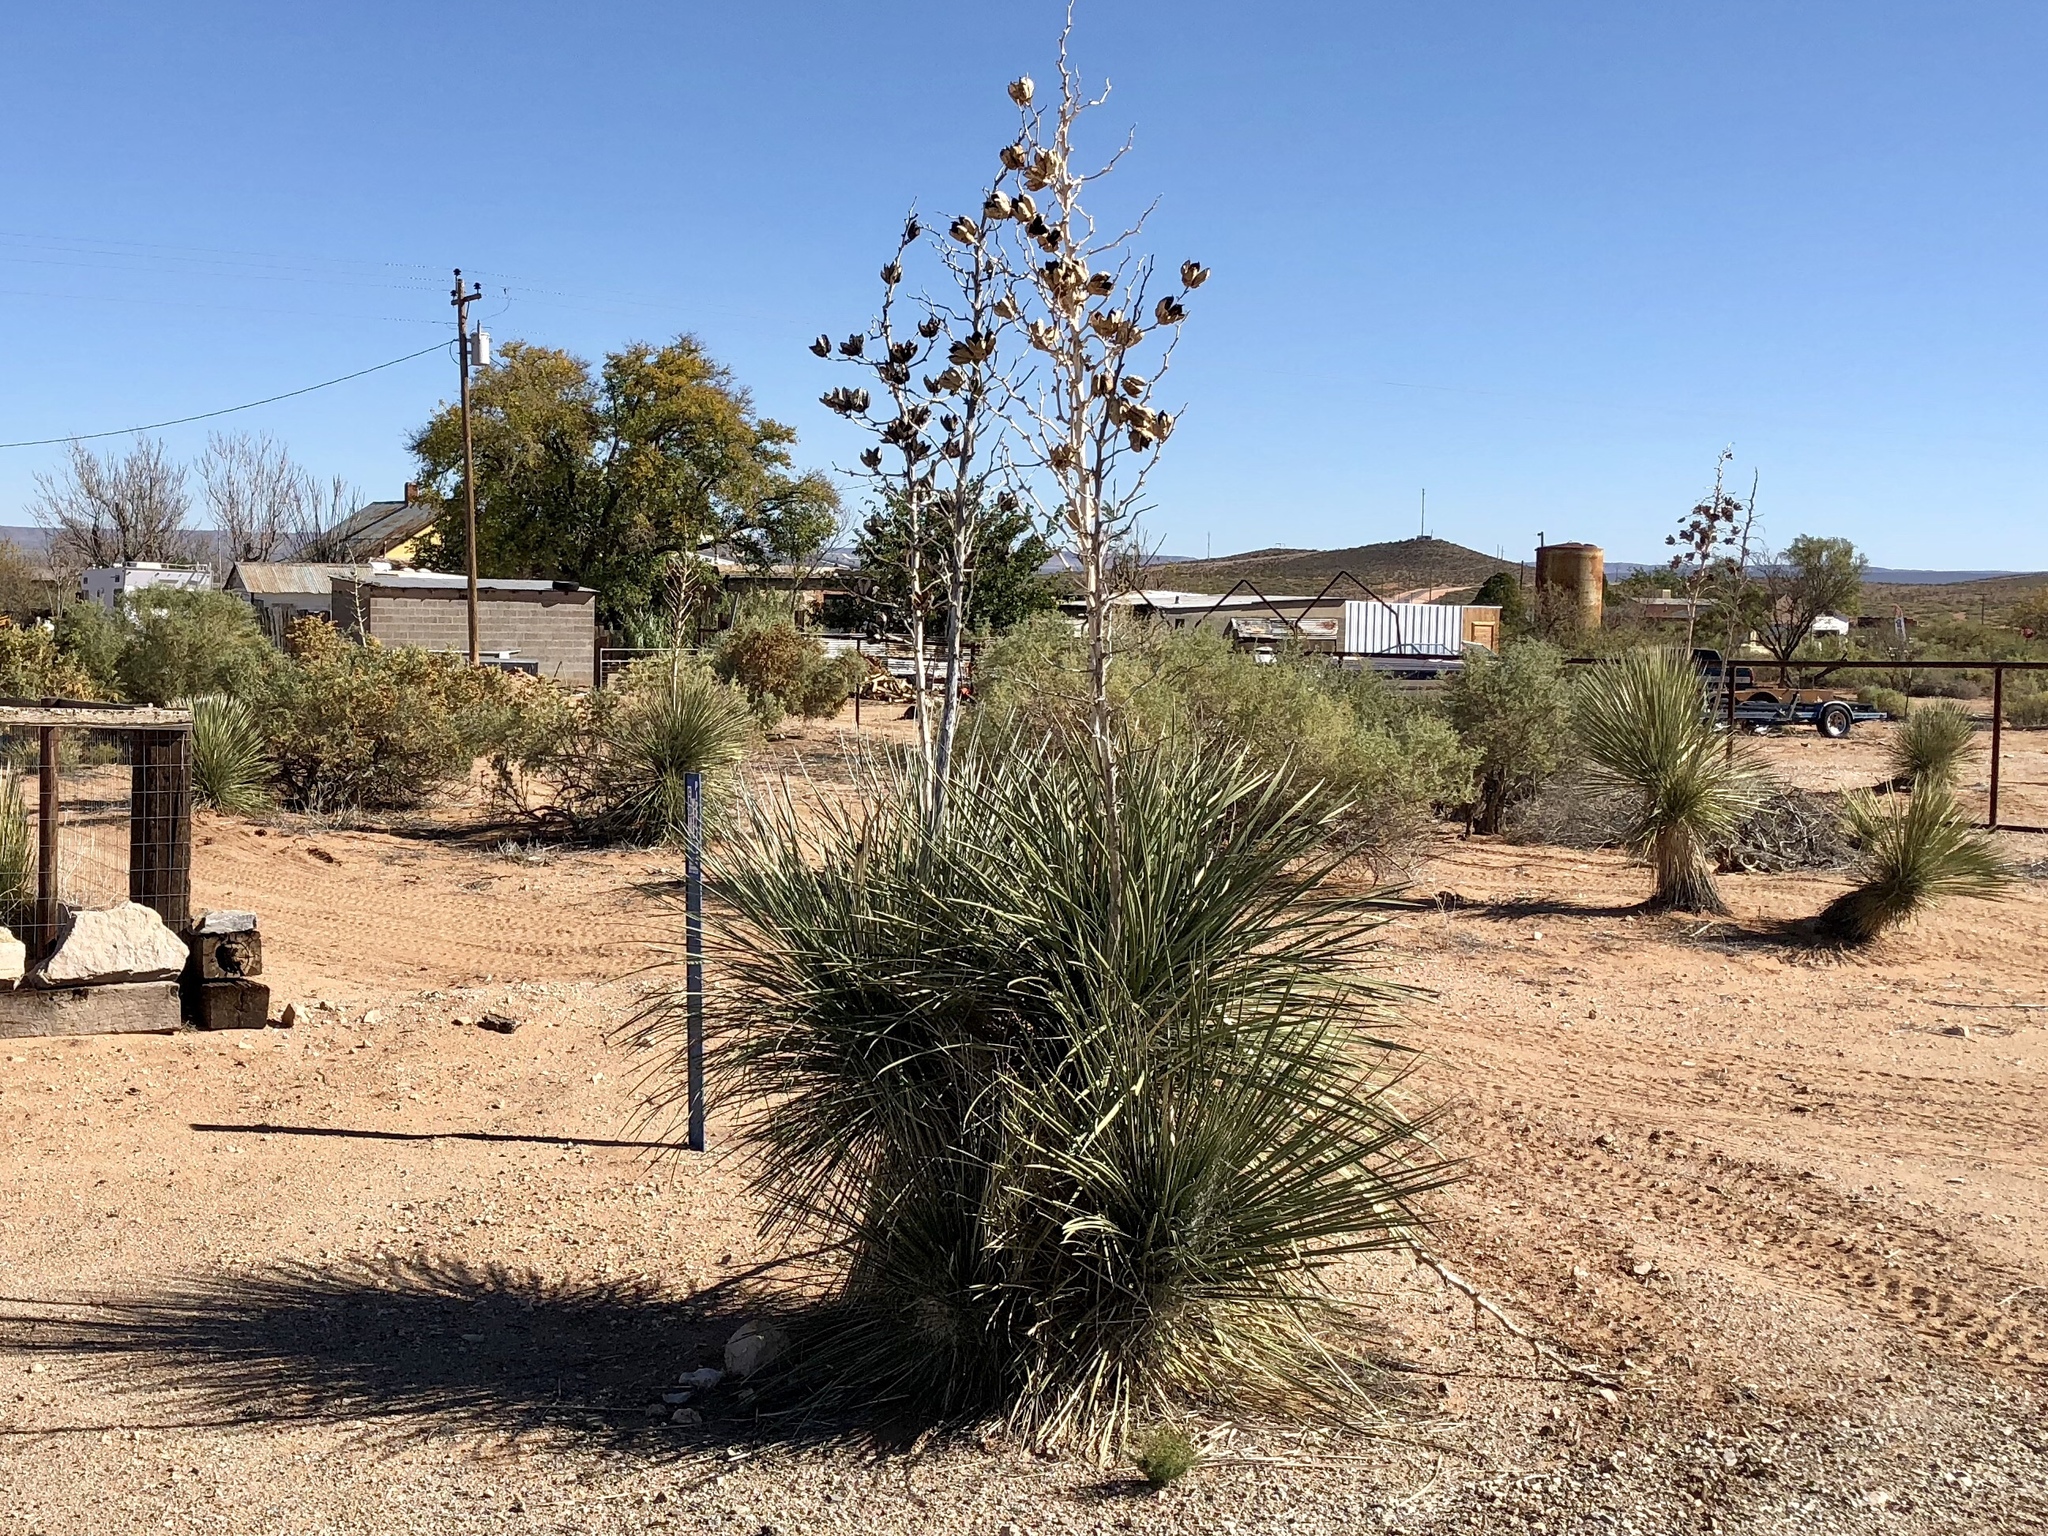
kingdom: Plantae
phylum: Tracheophyta
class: Liliopsida
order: Asparagales
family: Asparagaceae
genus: Yucca
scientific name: Yucca elata
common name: Palmella
